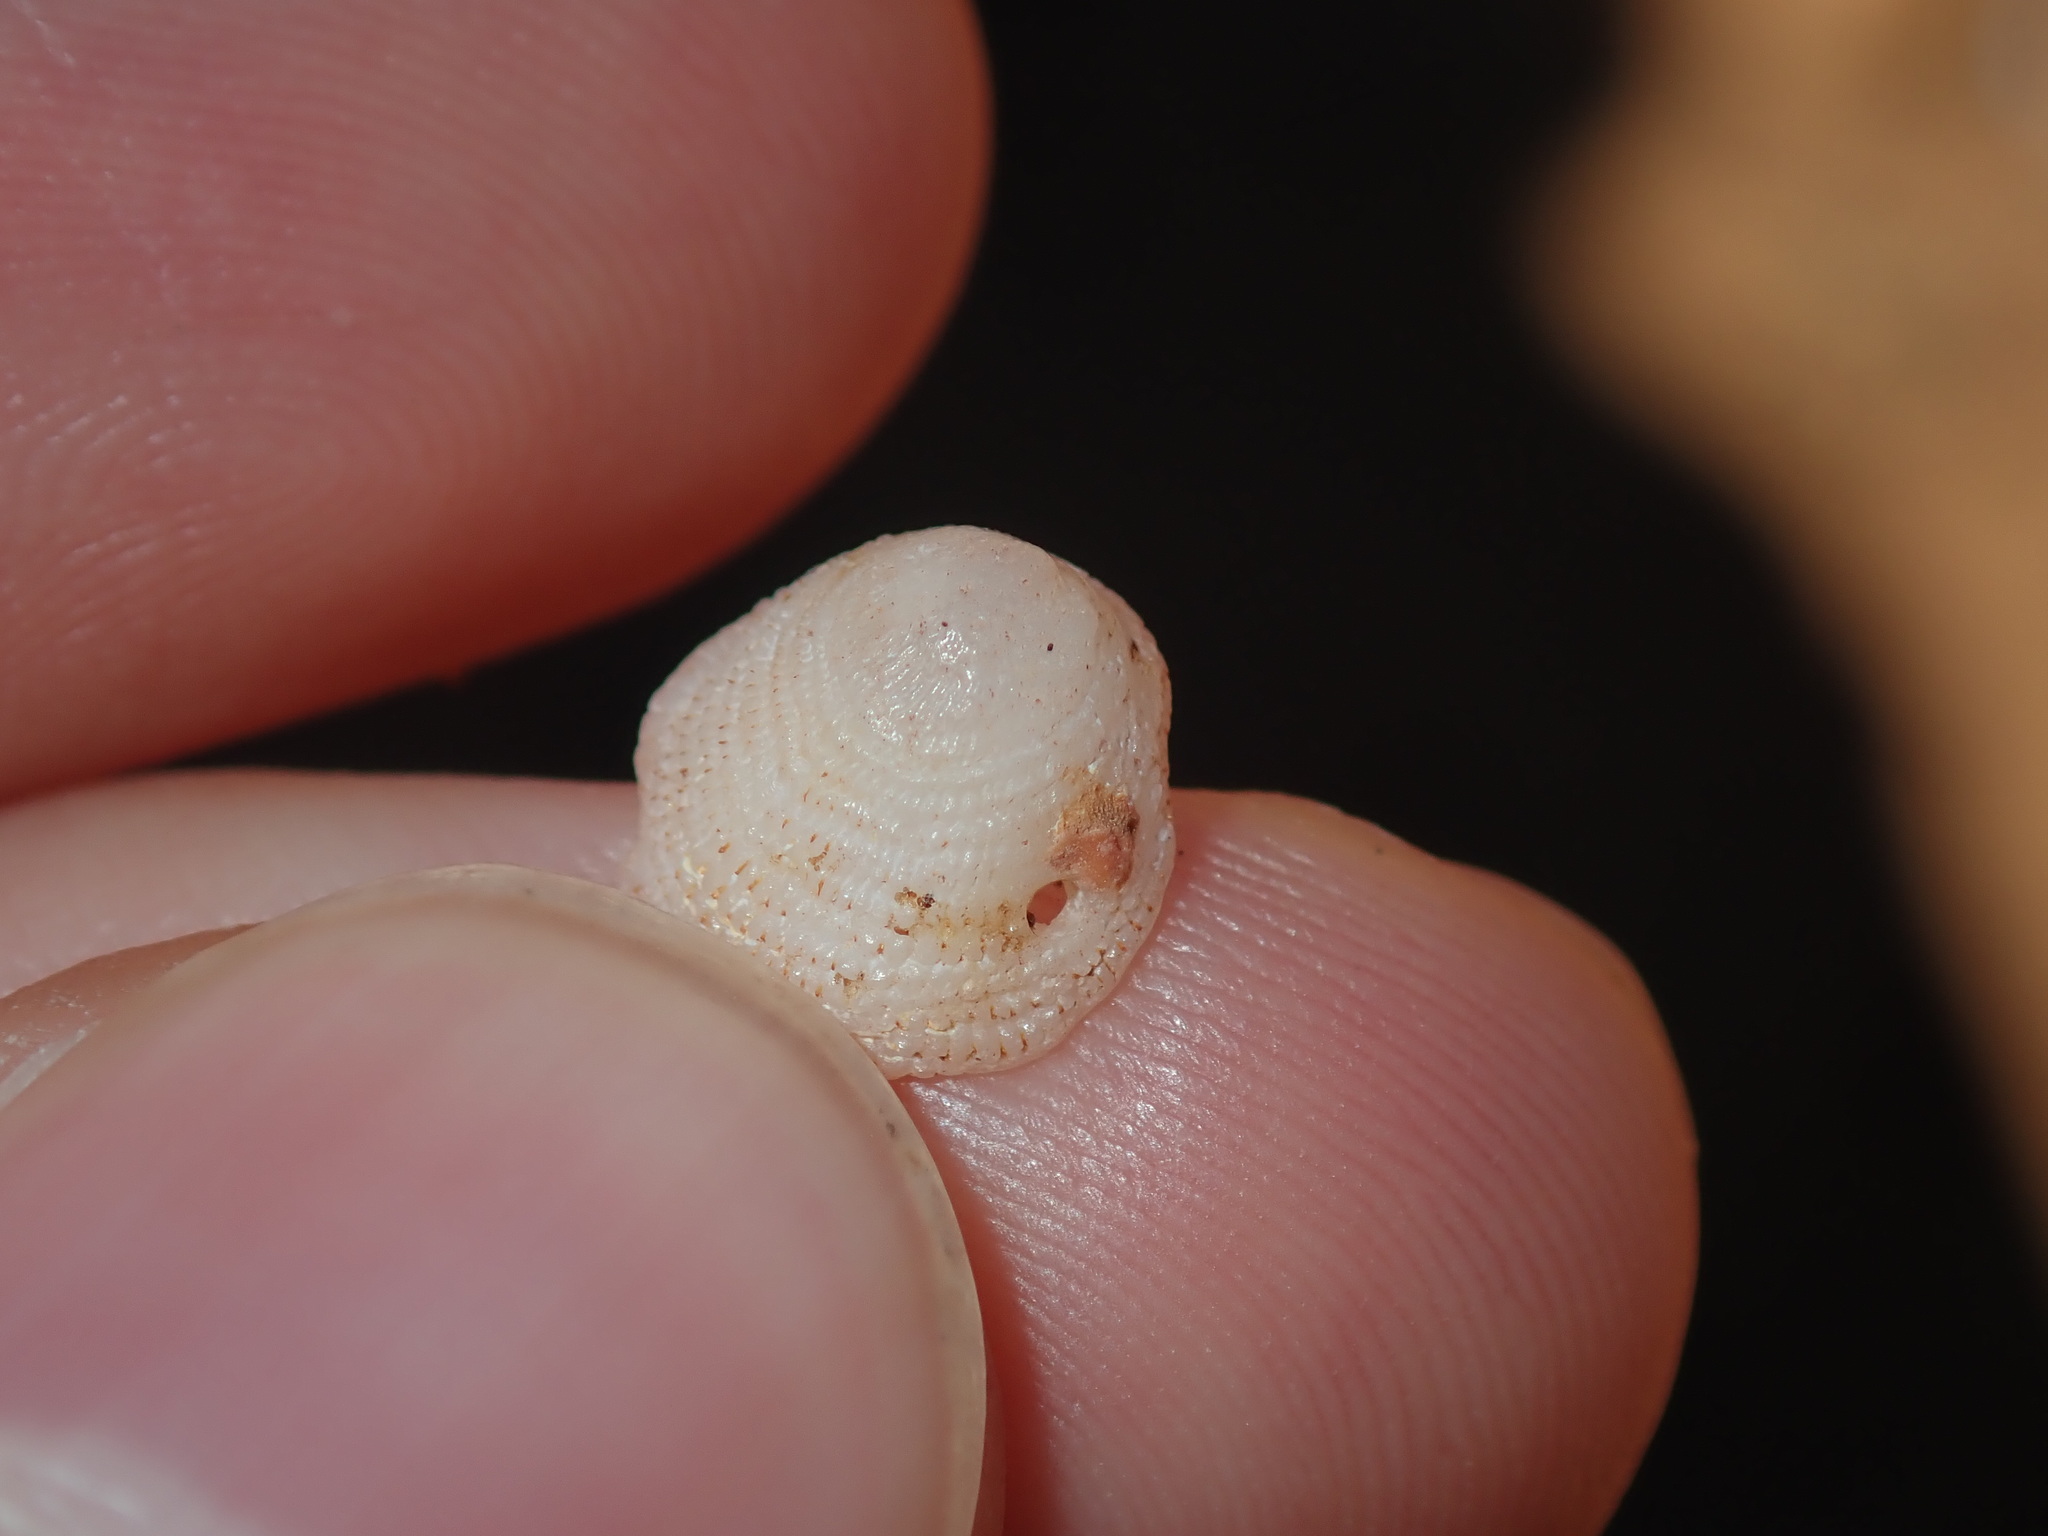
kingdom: Animalia
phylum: Mollusca
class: Gastropoda
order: Littorinimorpha
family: Hipponicidae
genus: Antisabia
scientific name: Antisabia foliacea
